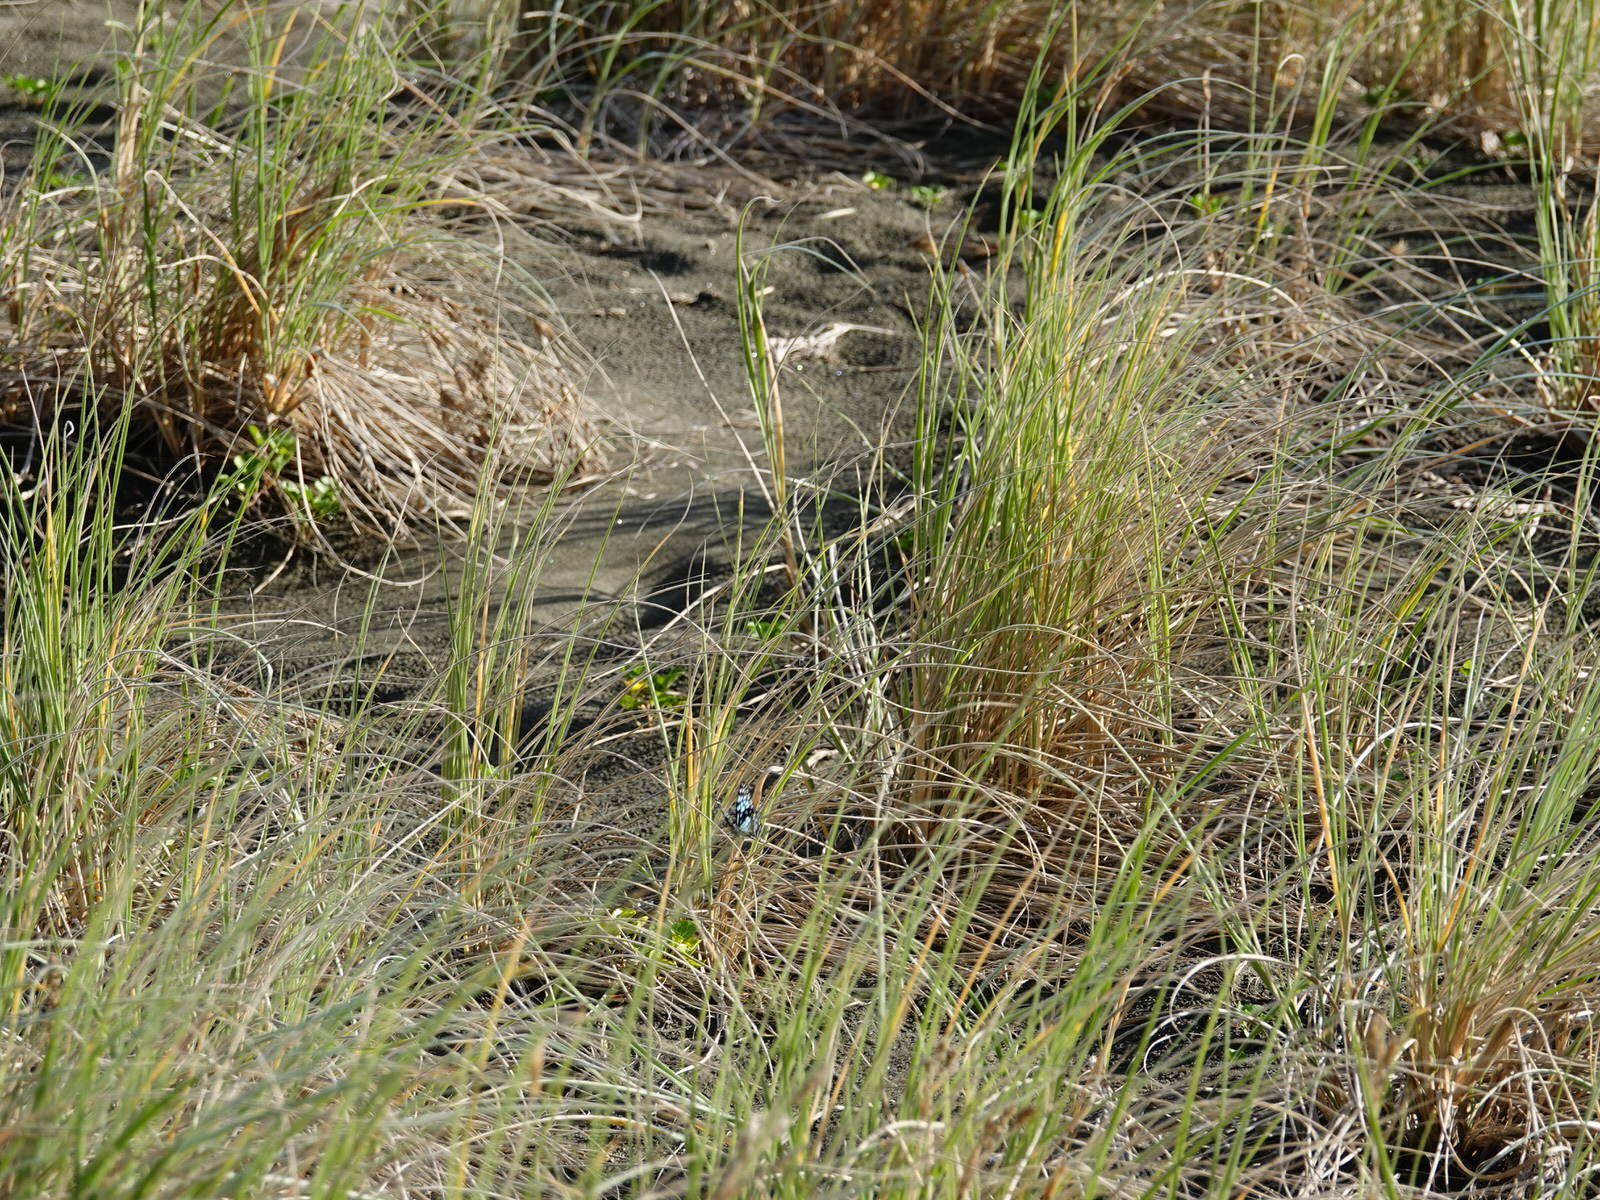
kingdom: Animalia
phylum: Arthropoda
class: Insecta
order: Lepidoptera
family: Nymphalidae
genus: Tirumala
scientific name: Tirumala hamata
